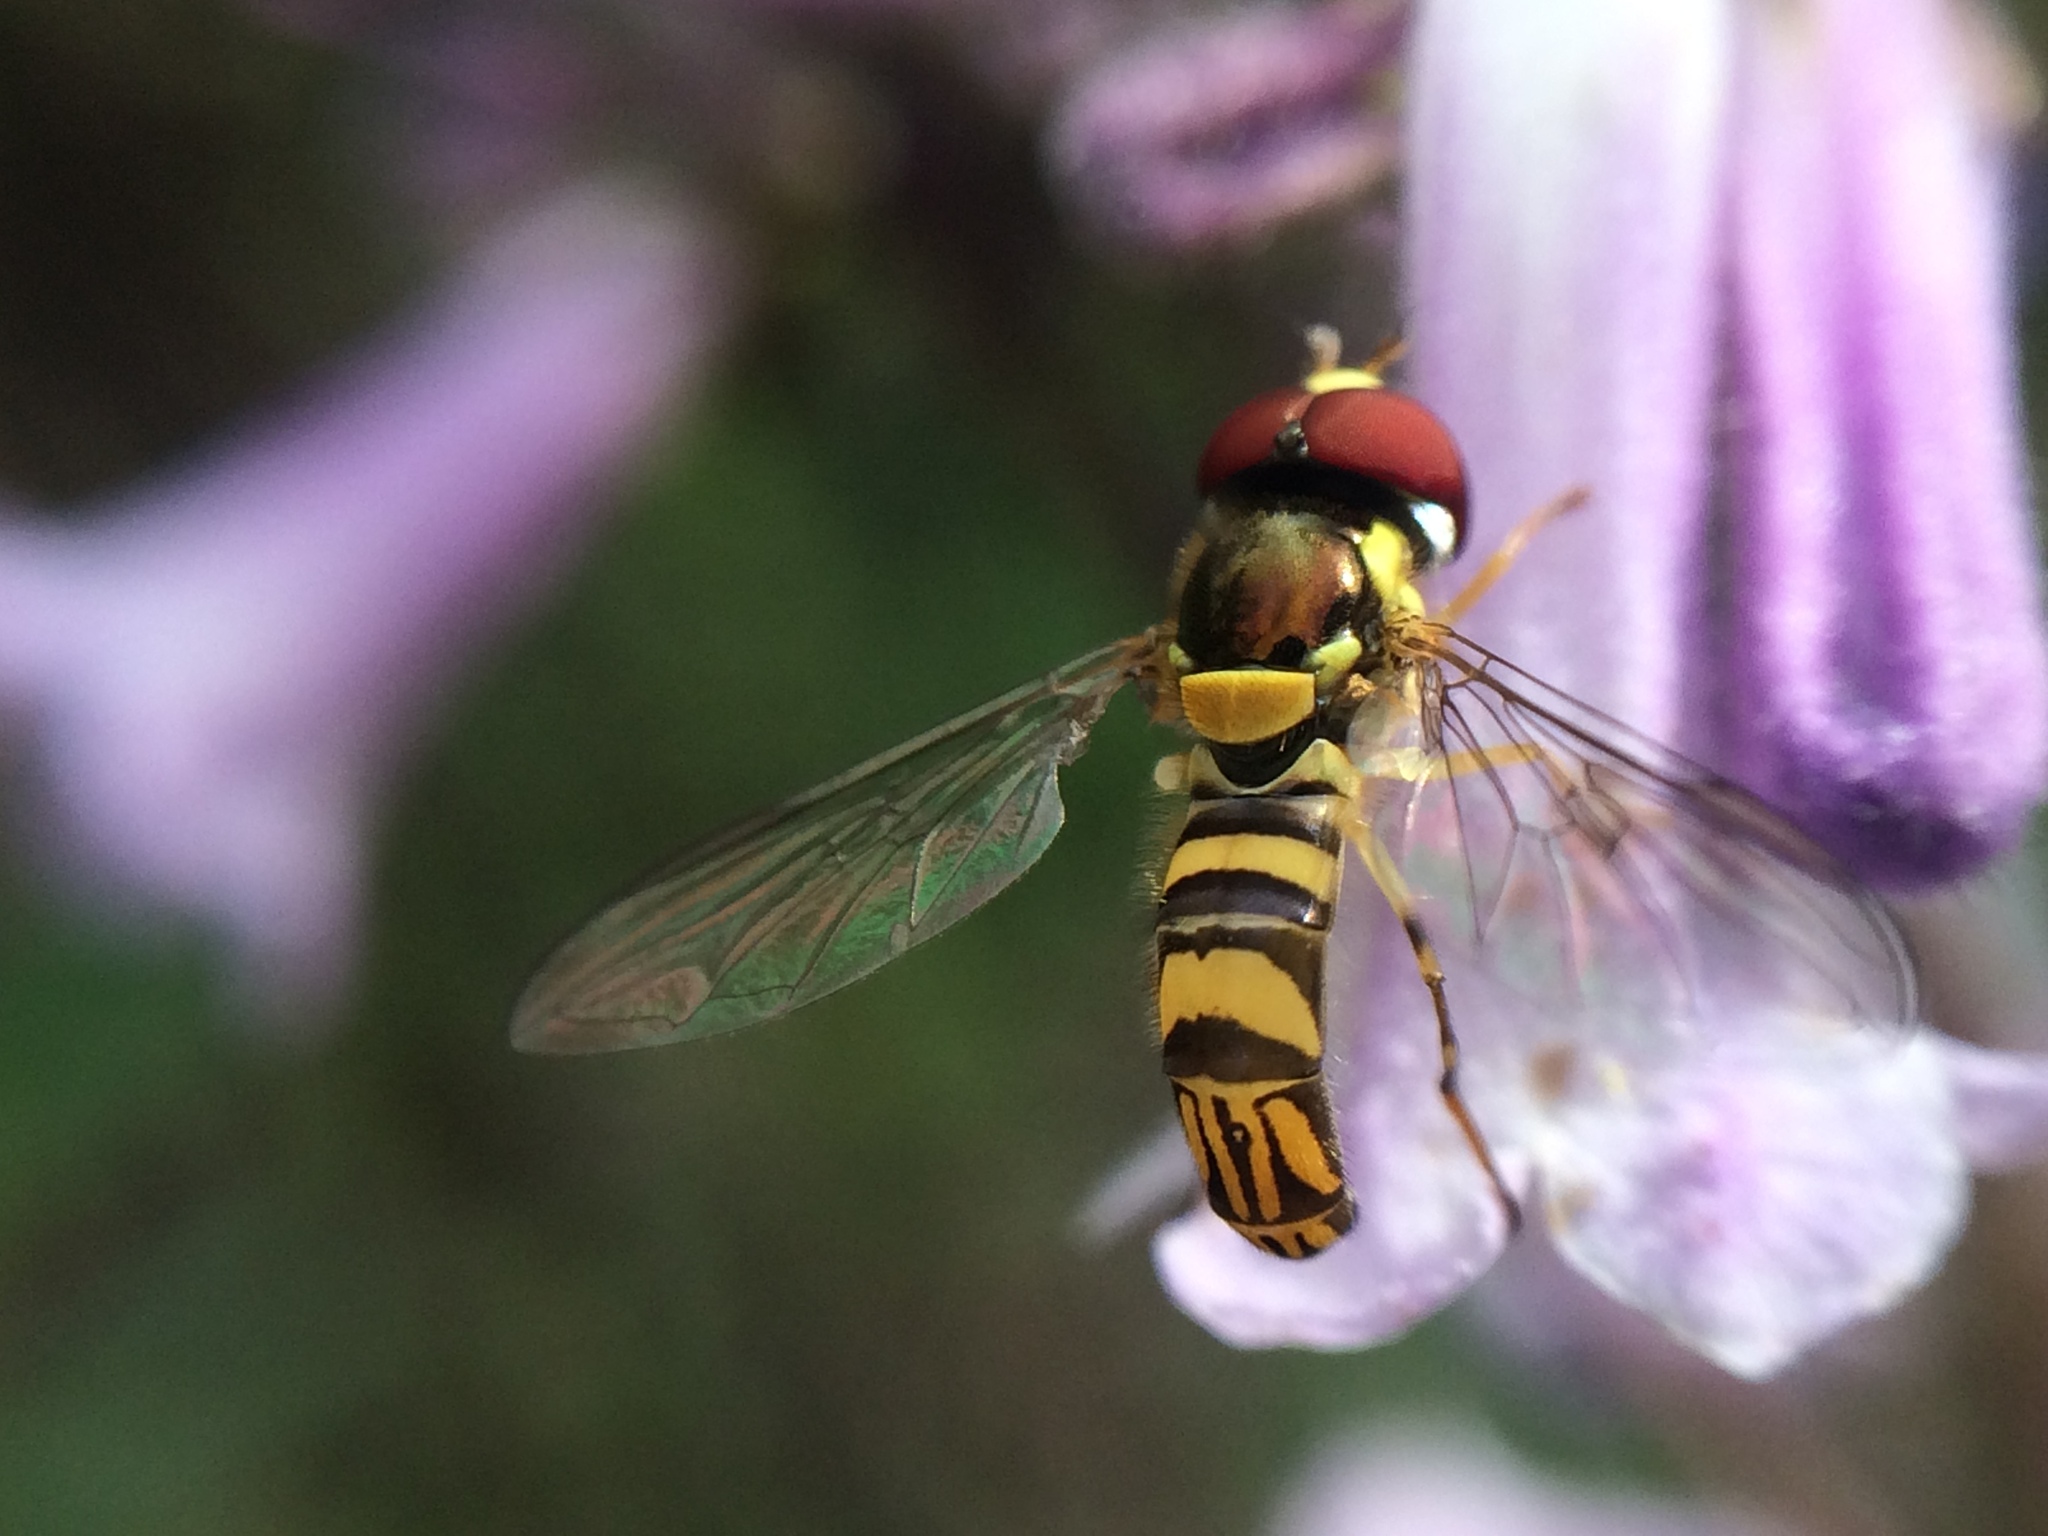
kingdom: Animalia
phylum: Arthropoda
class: Insecta
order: Diptera
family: Syrphidae
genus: Allograpta
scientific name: Allograpta obliqua
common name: Common oblique syrphid
